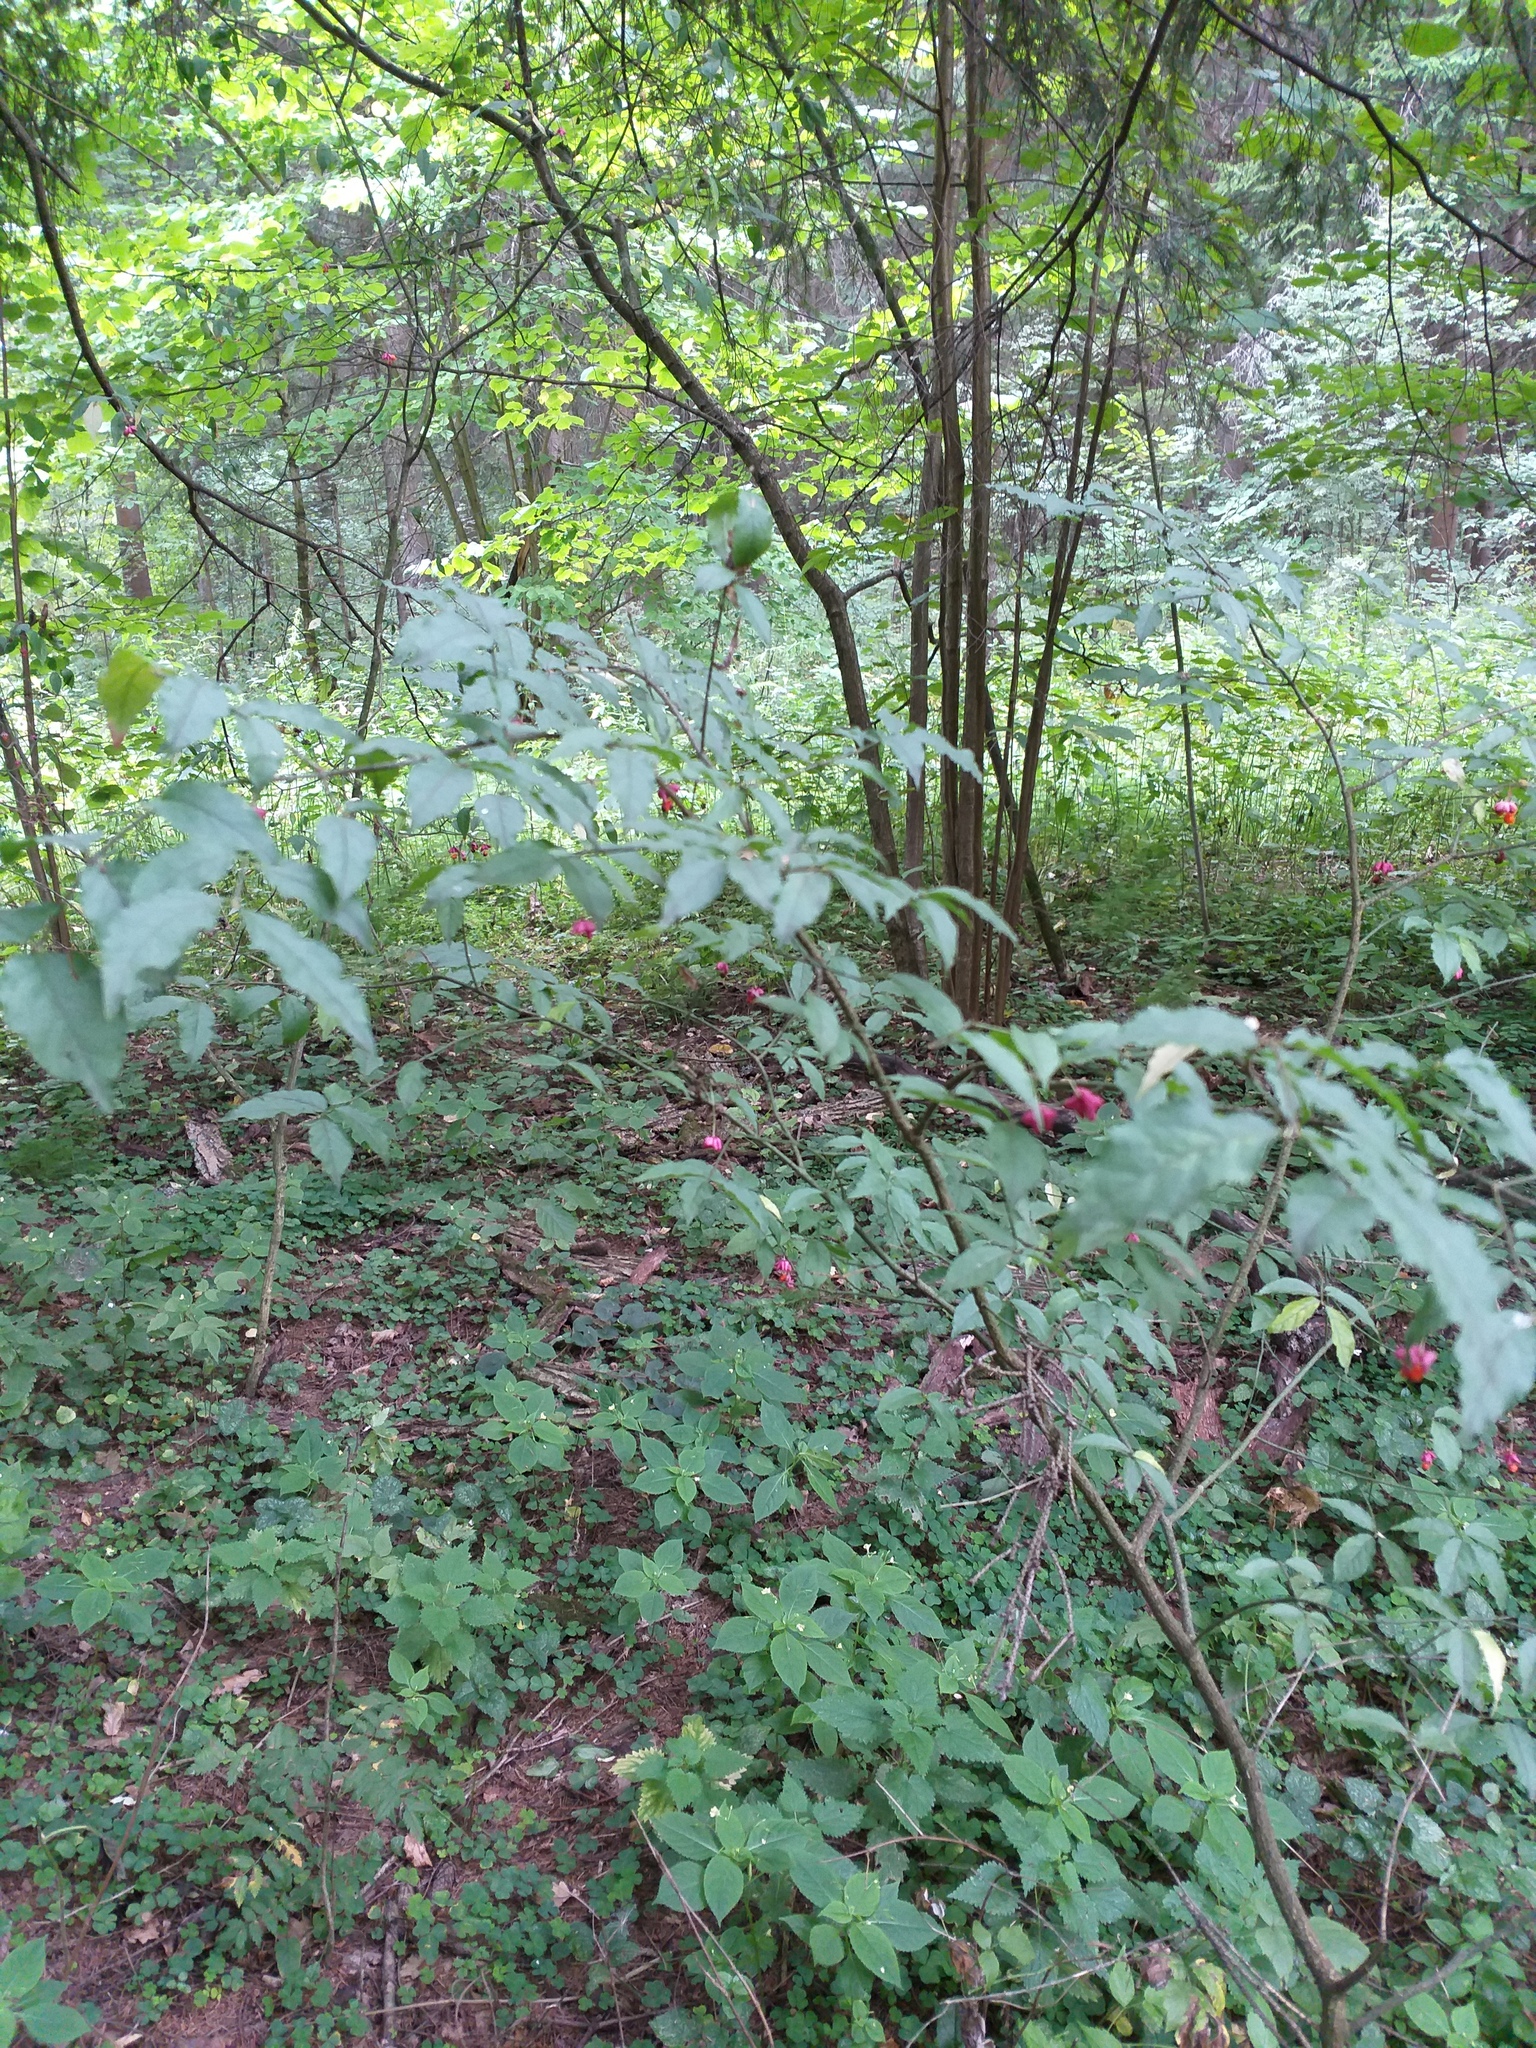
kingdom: Plantae
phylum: Tracheophyta
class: Magnoliopsida
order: Celastrales
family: Celastraceae
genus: Euonymus
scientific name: Euonymus verrucosus
